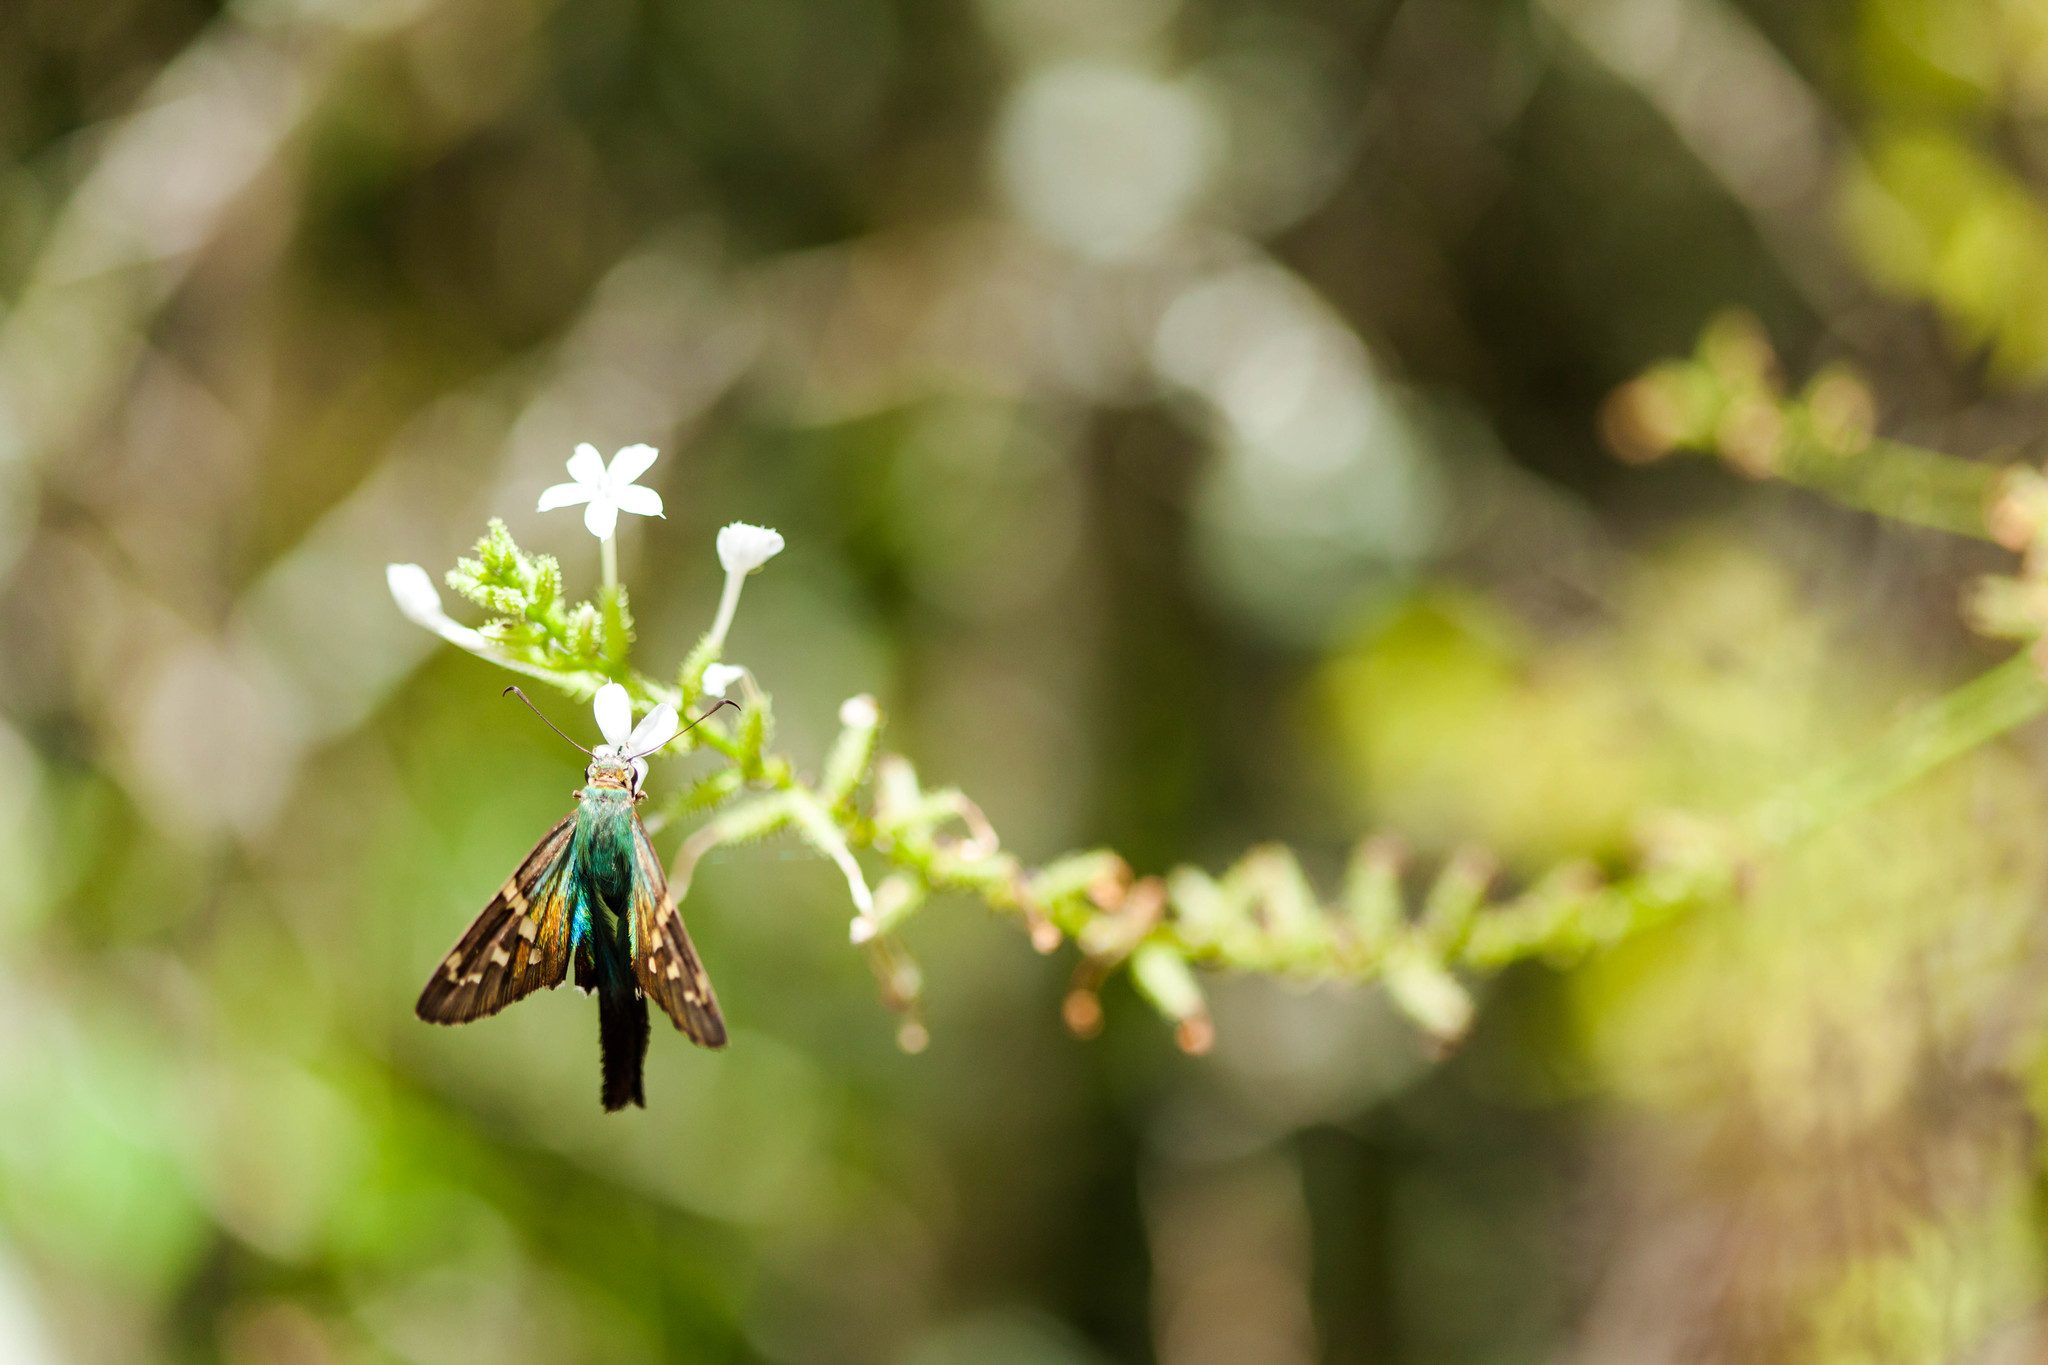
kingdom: Animalia
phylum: Arthropoda
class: Insecta
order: Lepidoptera
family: Hesperiidae
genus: Urbanus
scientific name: Urbanus proteus
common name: Long-tailed skipper
